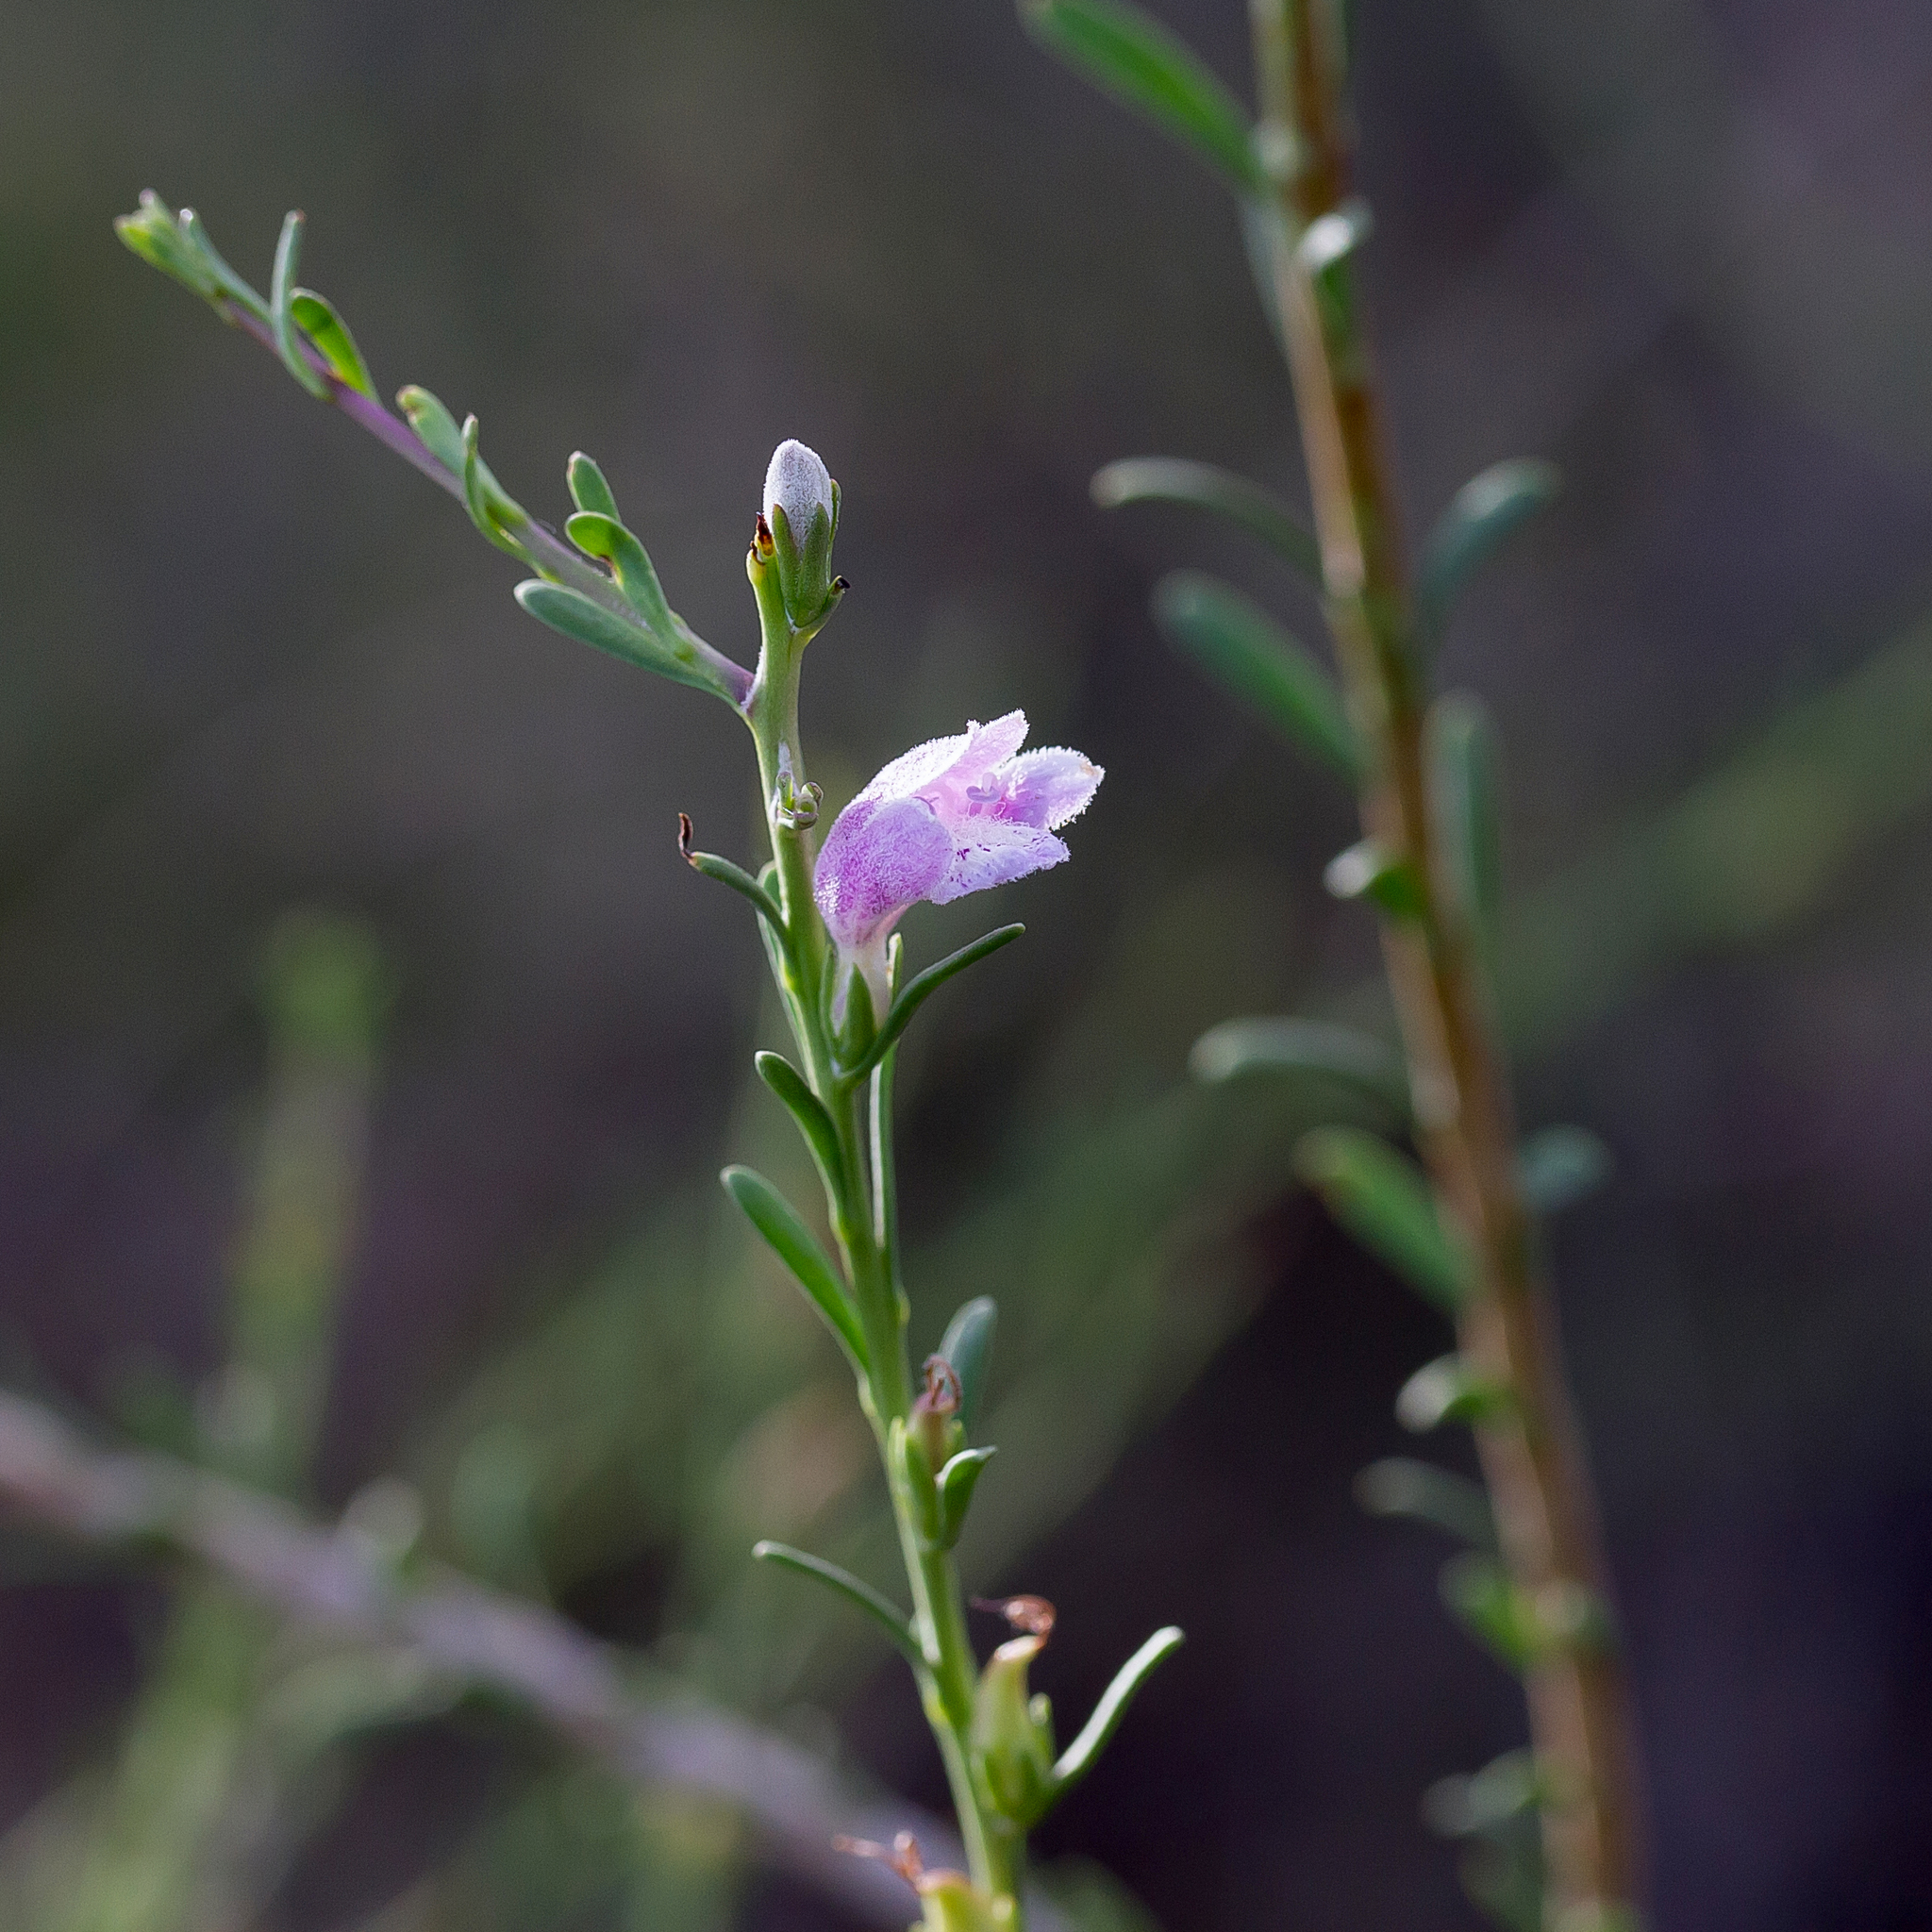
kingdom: Plantae
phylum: Tracheophyta
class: Magnoliopsida
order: Lamiales
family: Scrophulariaceae
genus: Eremophila
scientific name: Eremophila divaricata
